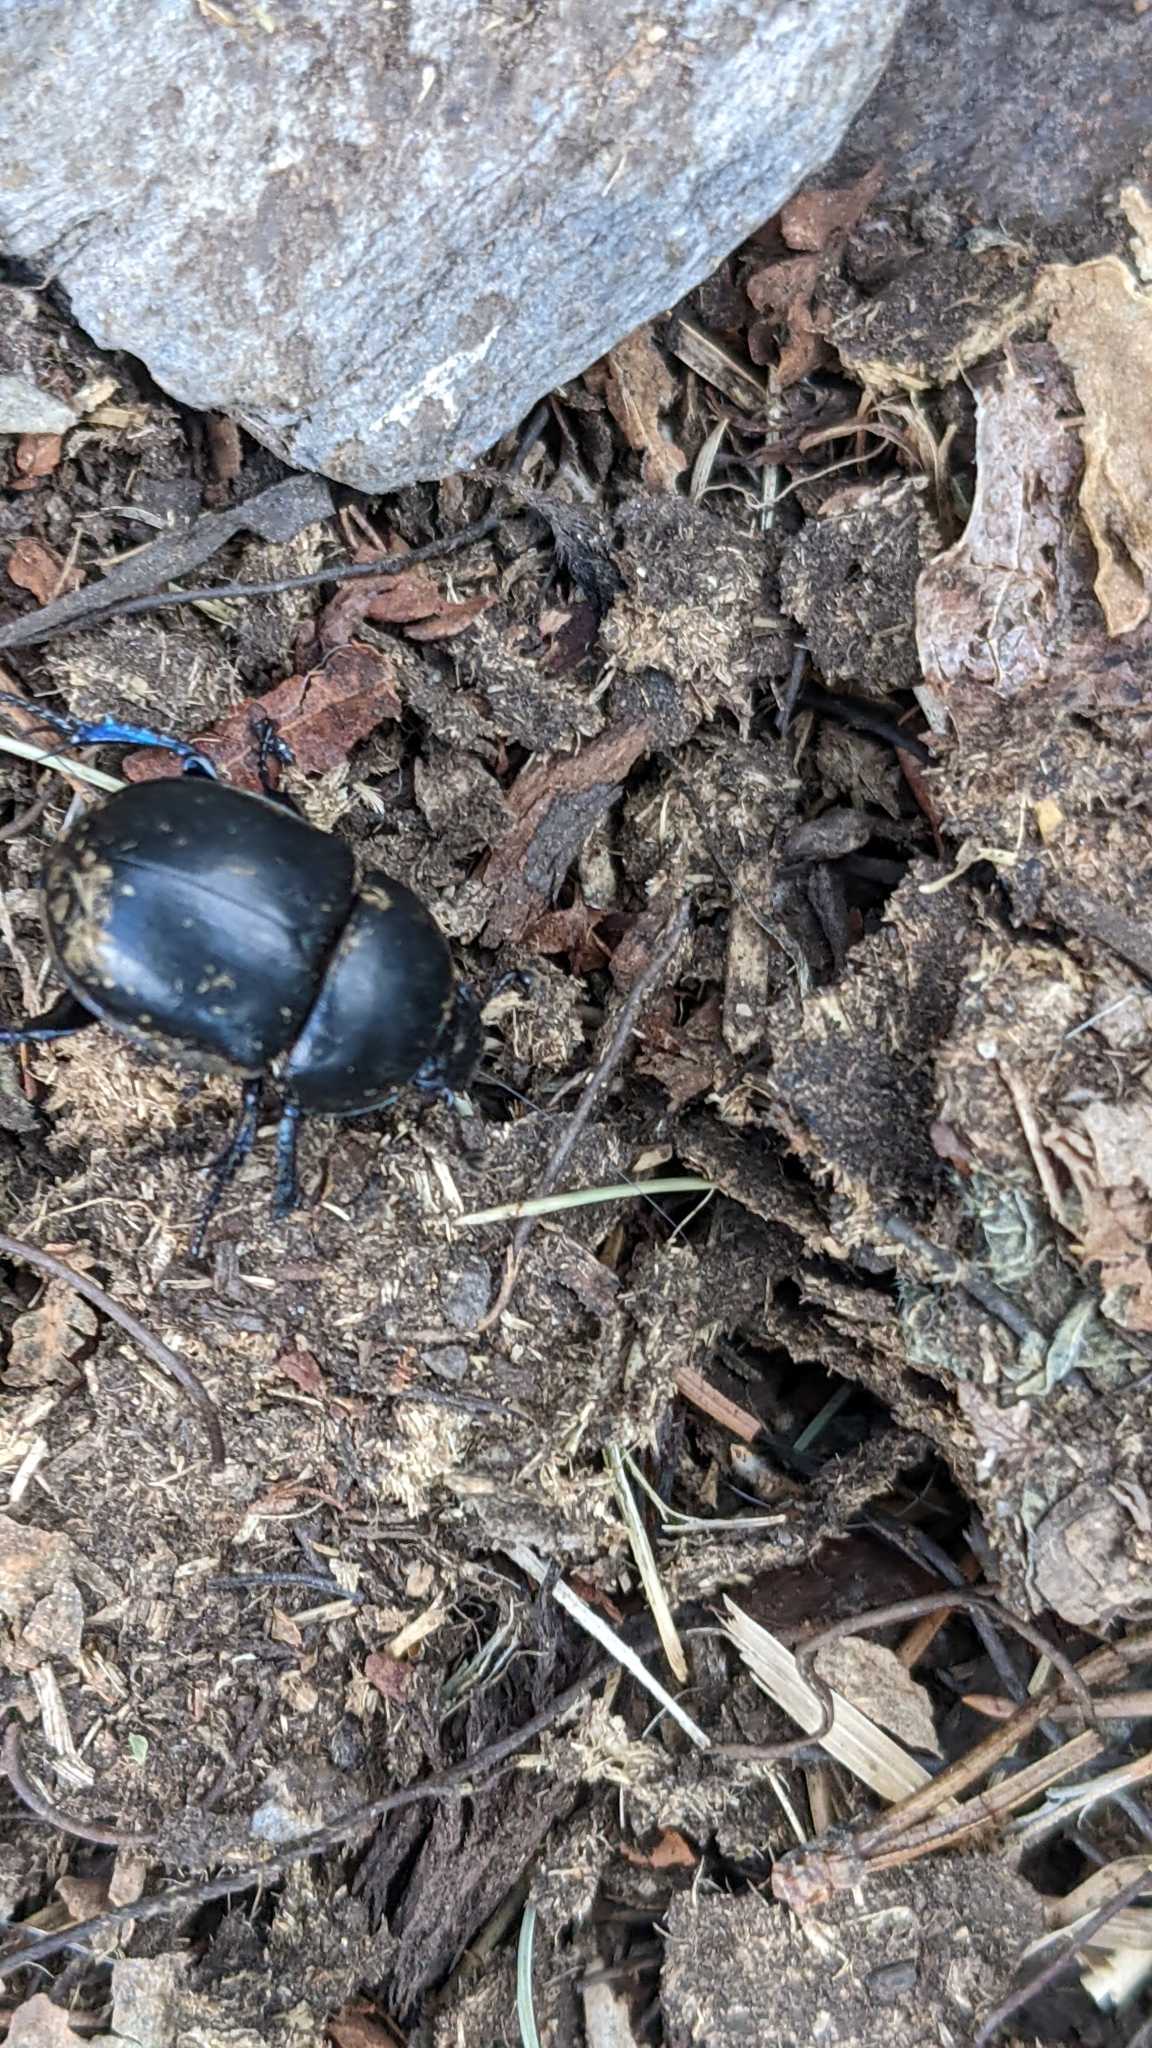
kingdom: Animalia
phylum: Arthropoda
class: Insecta
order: Coleoptera
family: Geotrupidae
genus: Anoplotrupes
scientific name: Anoplotrupes stercorosus
